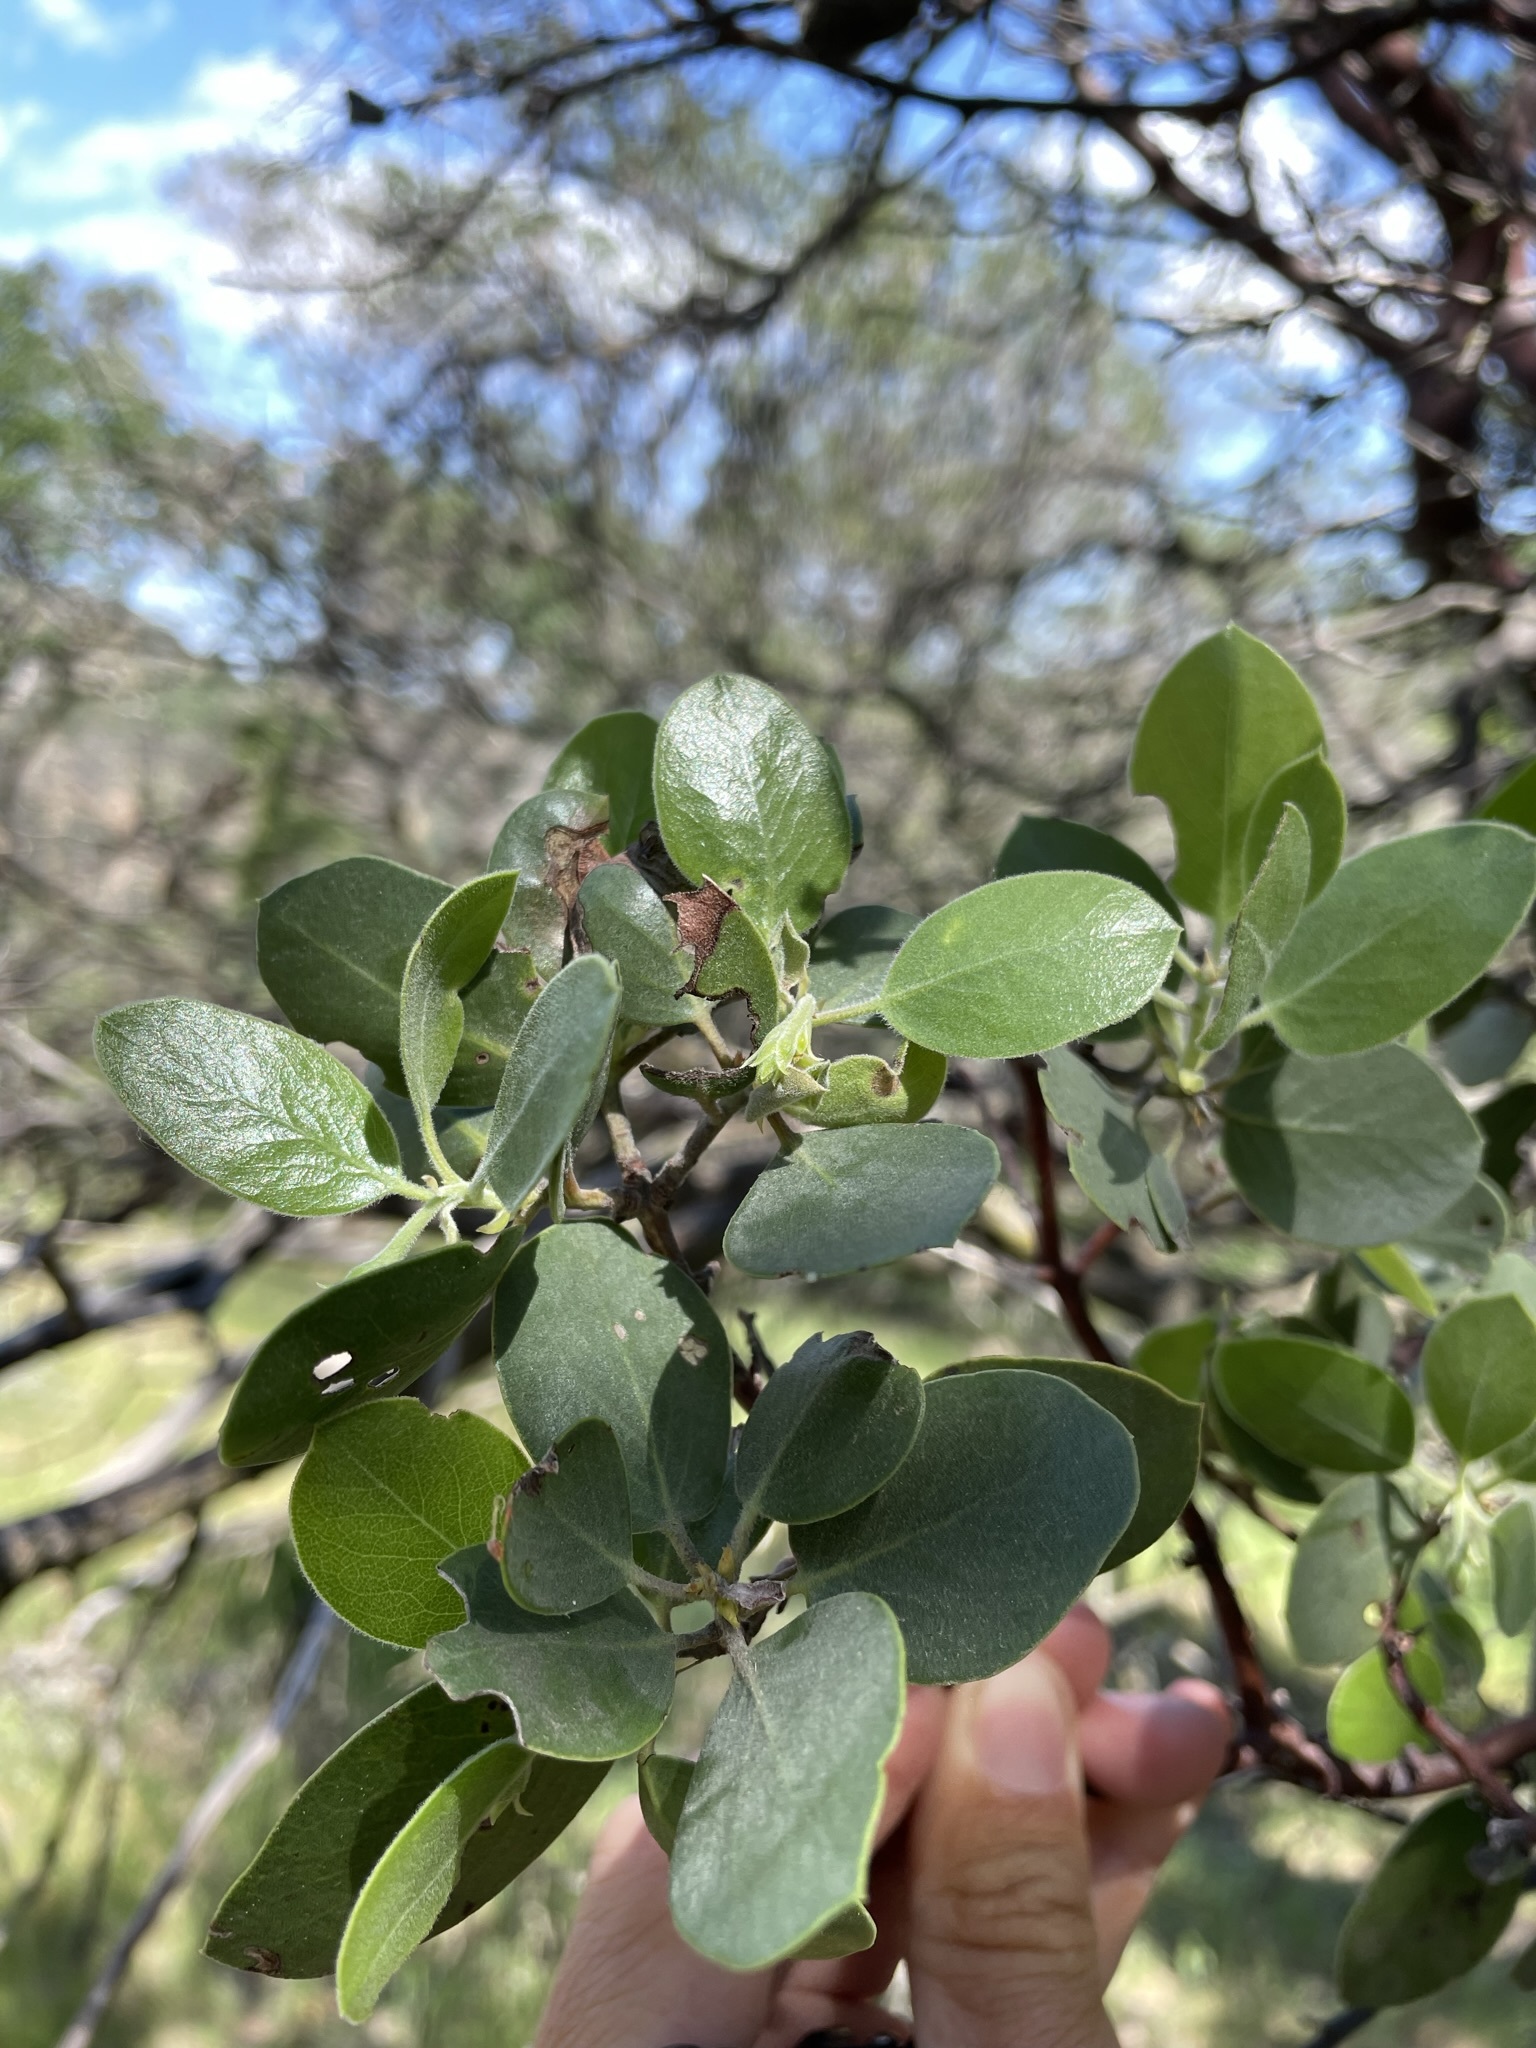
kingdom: Plantae
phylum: Tracheophyta
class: Magnoliopsida
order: Ericales
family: Ericaceae
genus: Arctostaphylos
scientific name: Arctostaphylos manzanita
